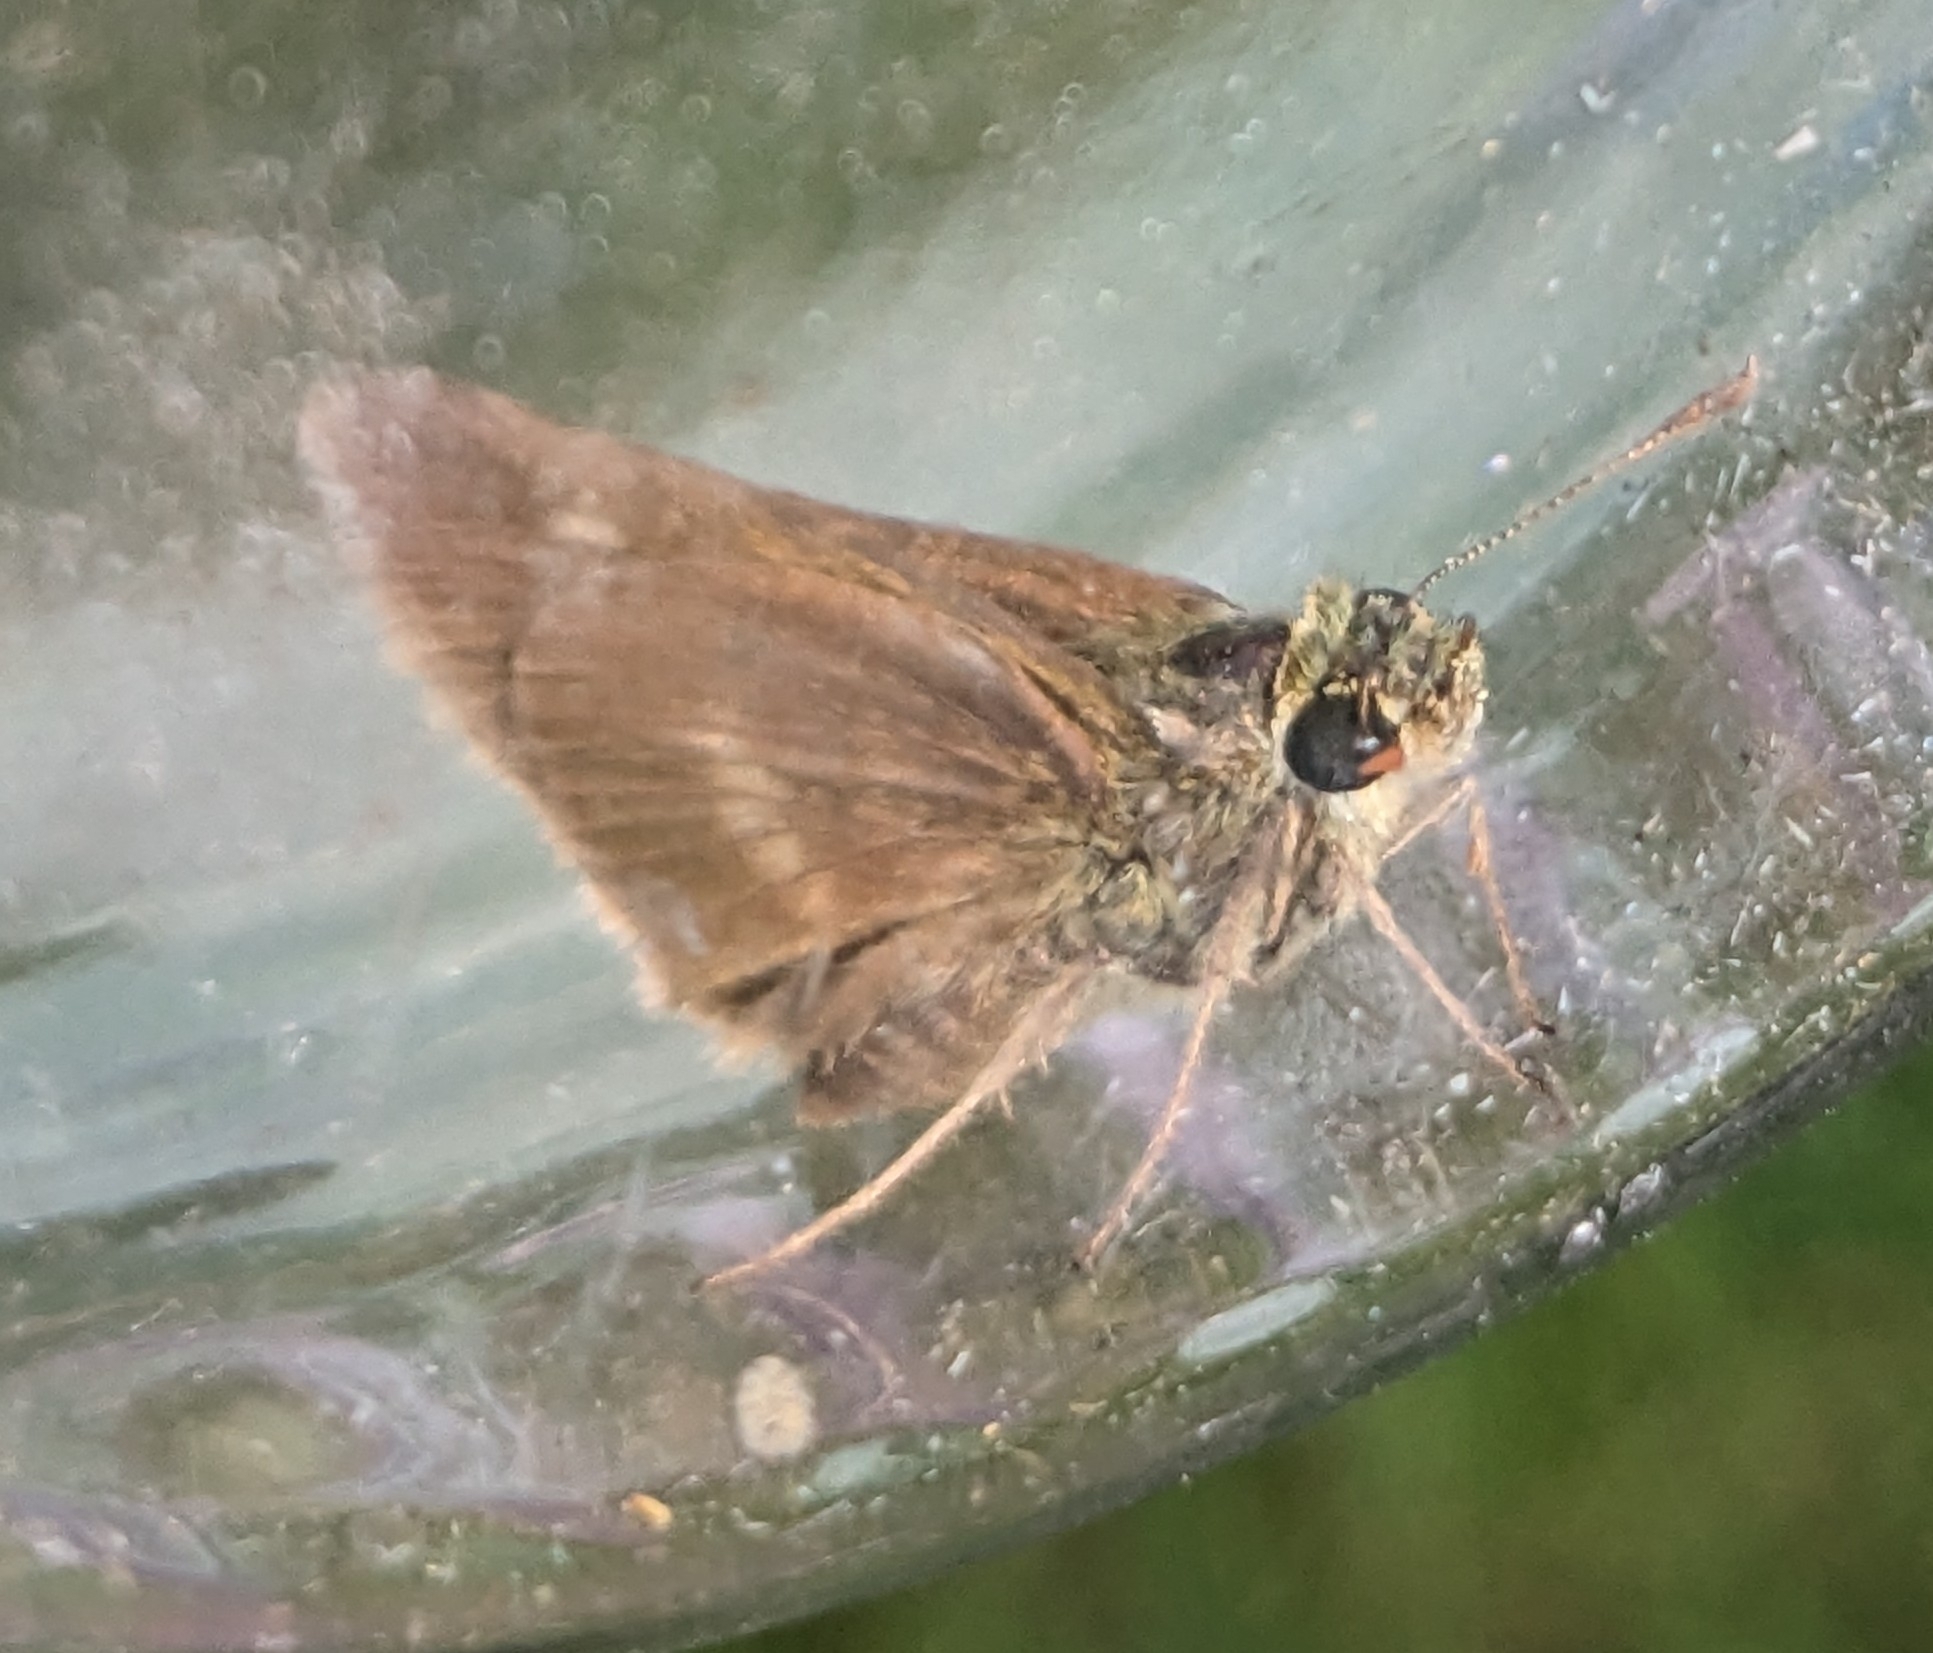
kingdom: Animalia
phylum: Arthropoda
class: Insecta
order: Lepidoptera
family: Hesperiidae
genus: Polites
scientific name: Polites egeremet
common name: Northern broken-dash
